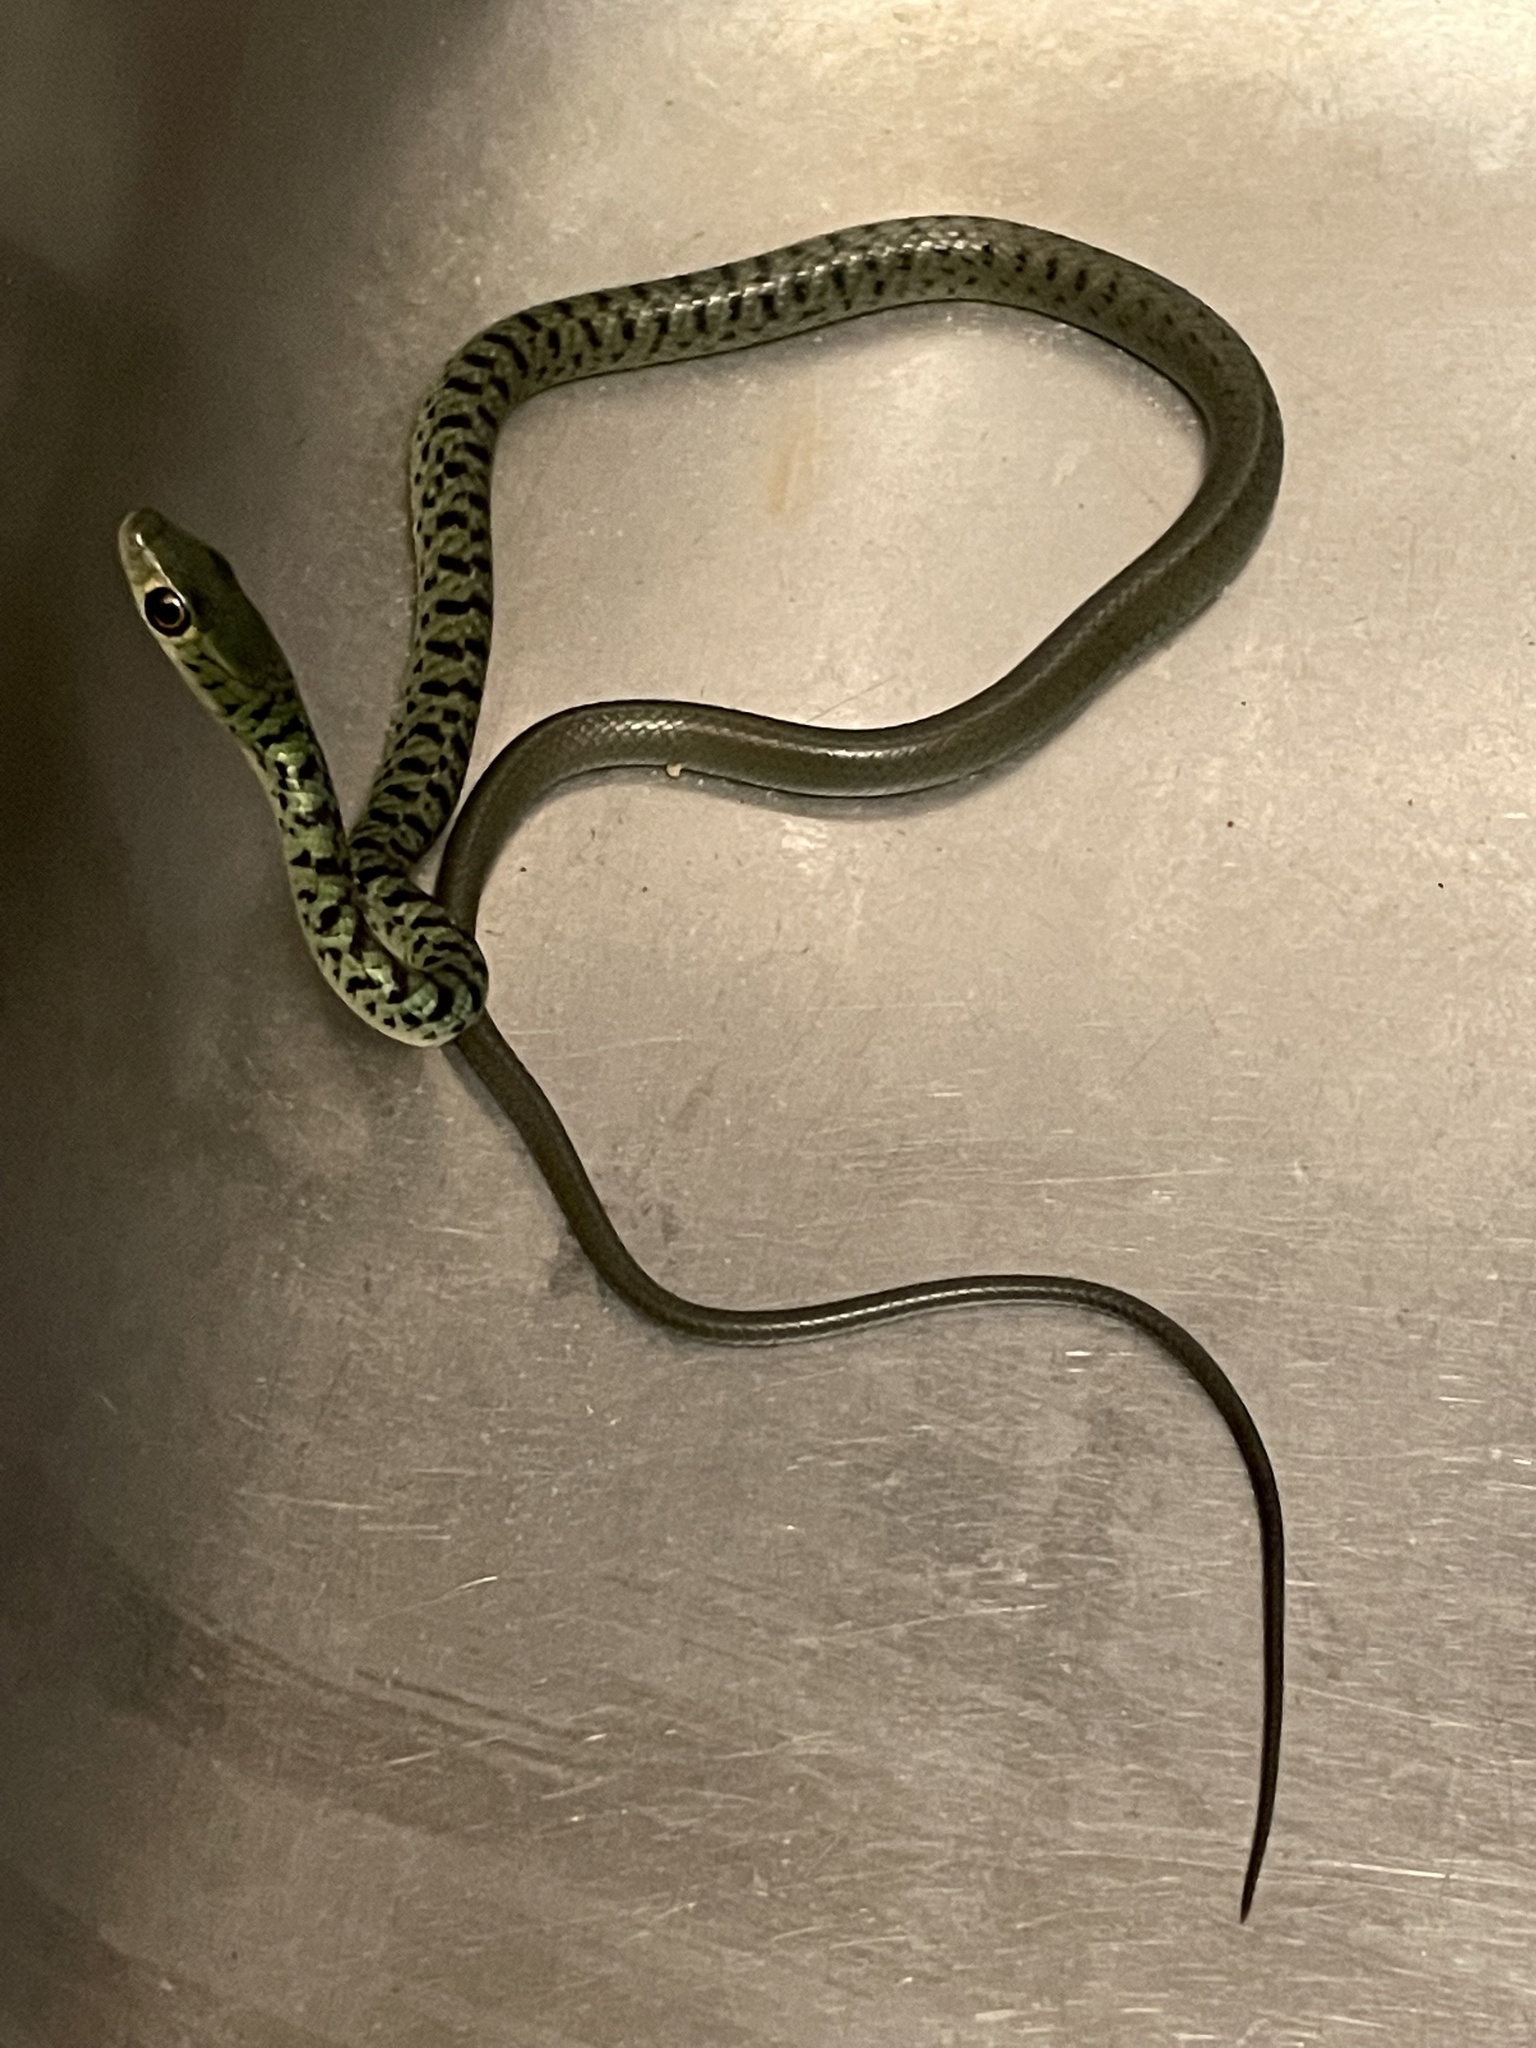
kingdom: Animalia
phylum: Chordata
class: Squamata
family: Colubridae
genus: Philothamnus
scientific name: Philothamnus semivariegatus
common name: Spotted bush snake
